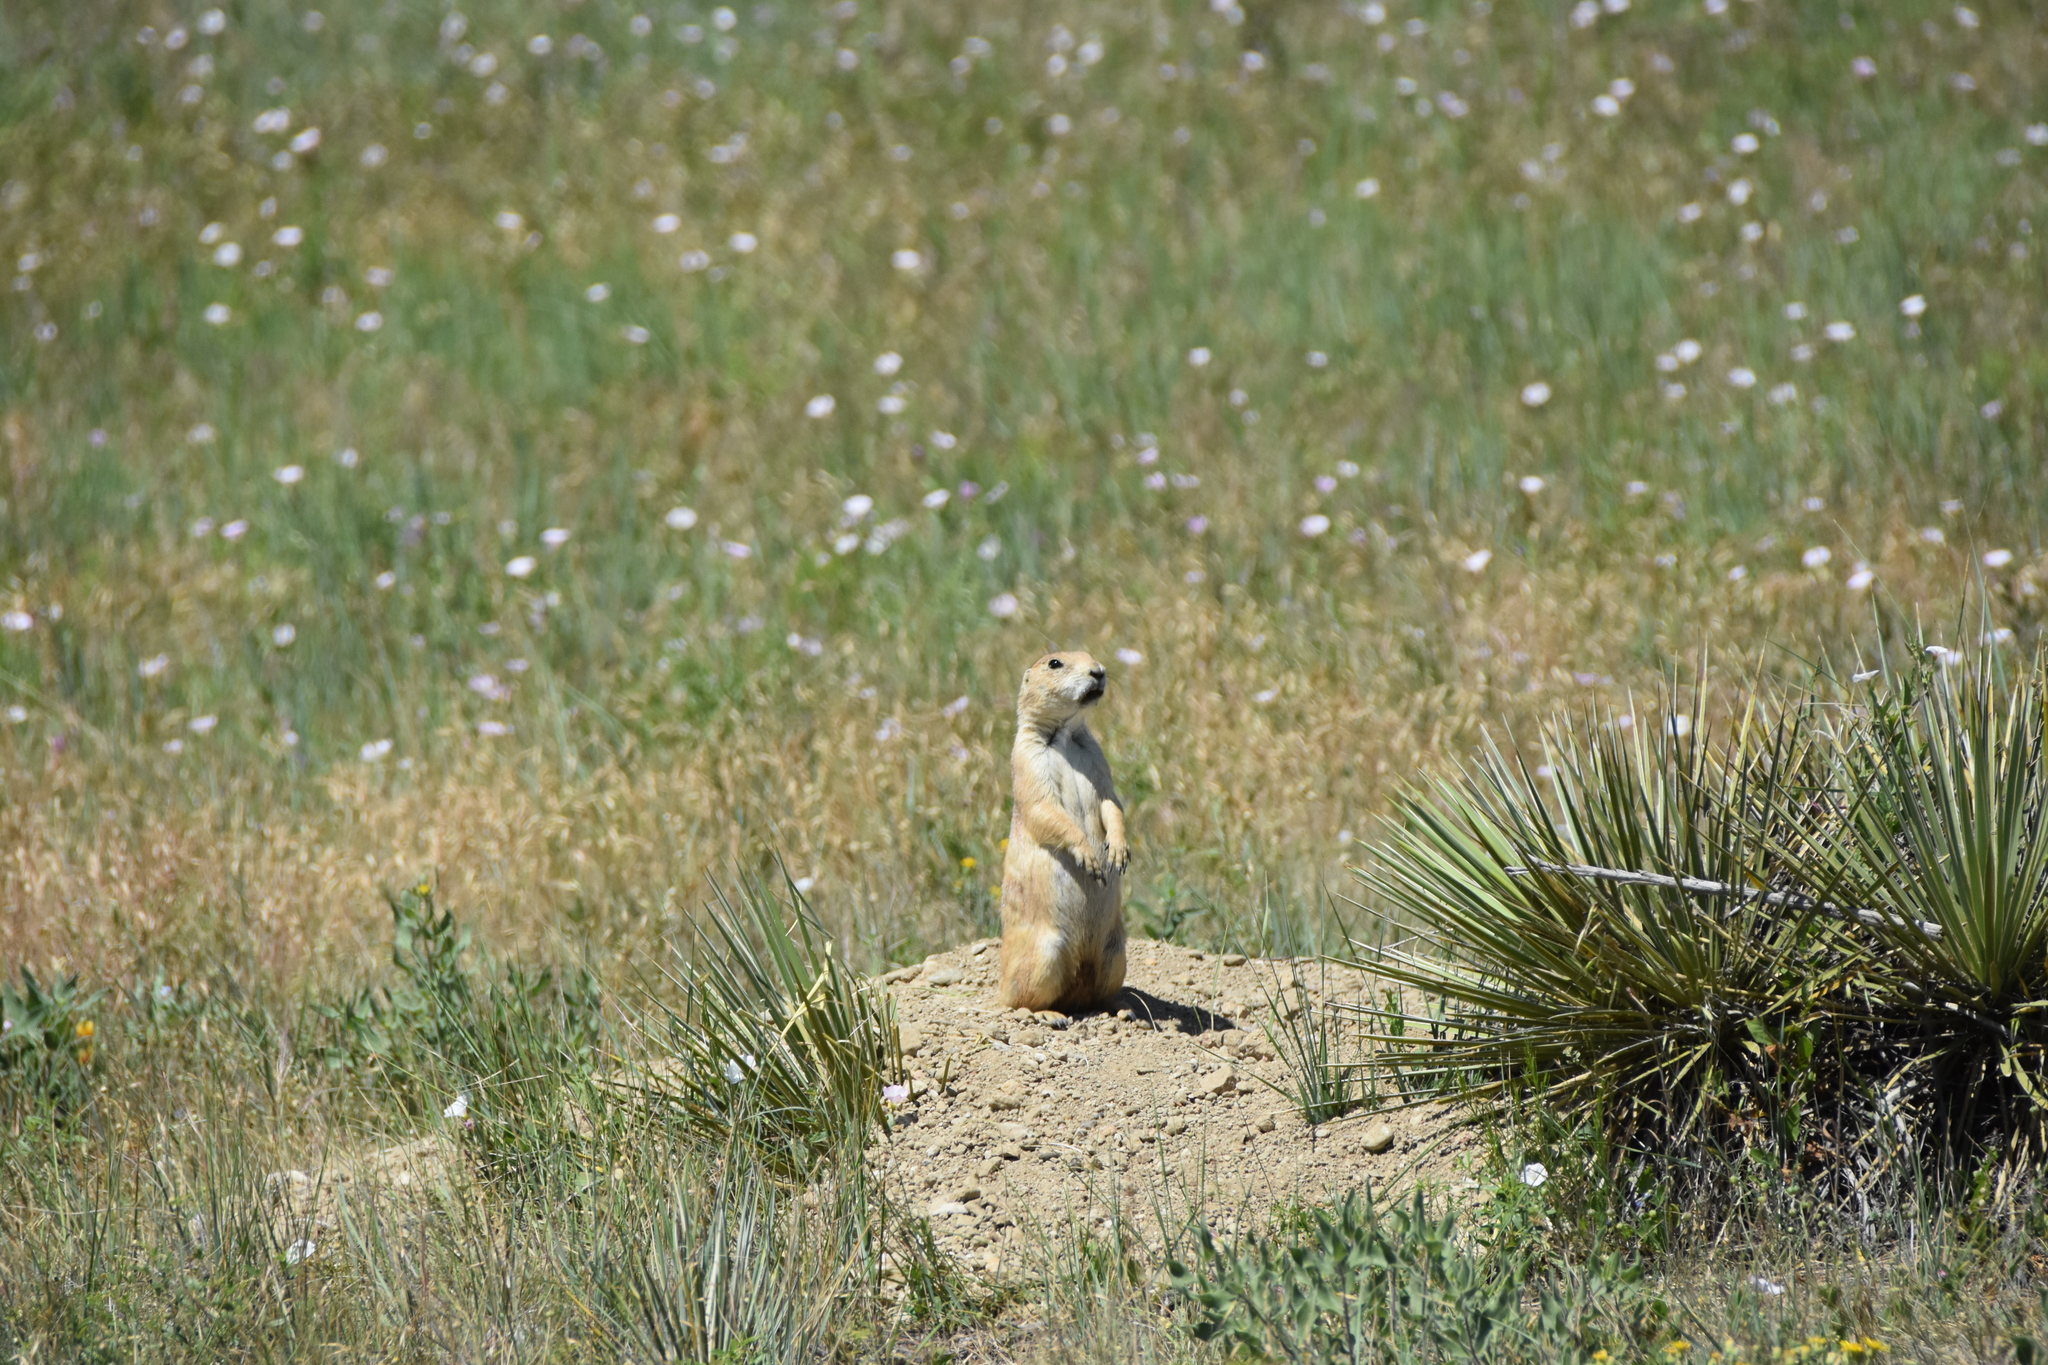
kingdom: Animalia
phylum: Chordata
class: Mammalia
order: Rodentia
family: Sciuridae
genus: Cynomys
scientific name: Cynomys ludovicianus
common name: Black-tailed prairie dog
